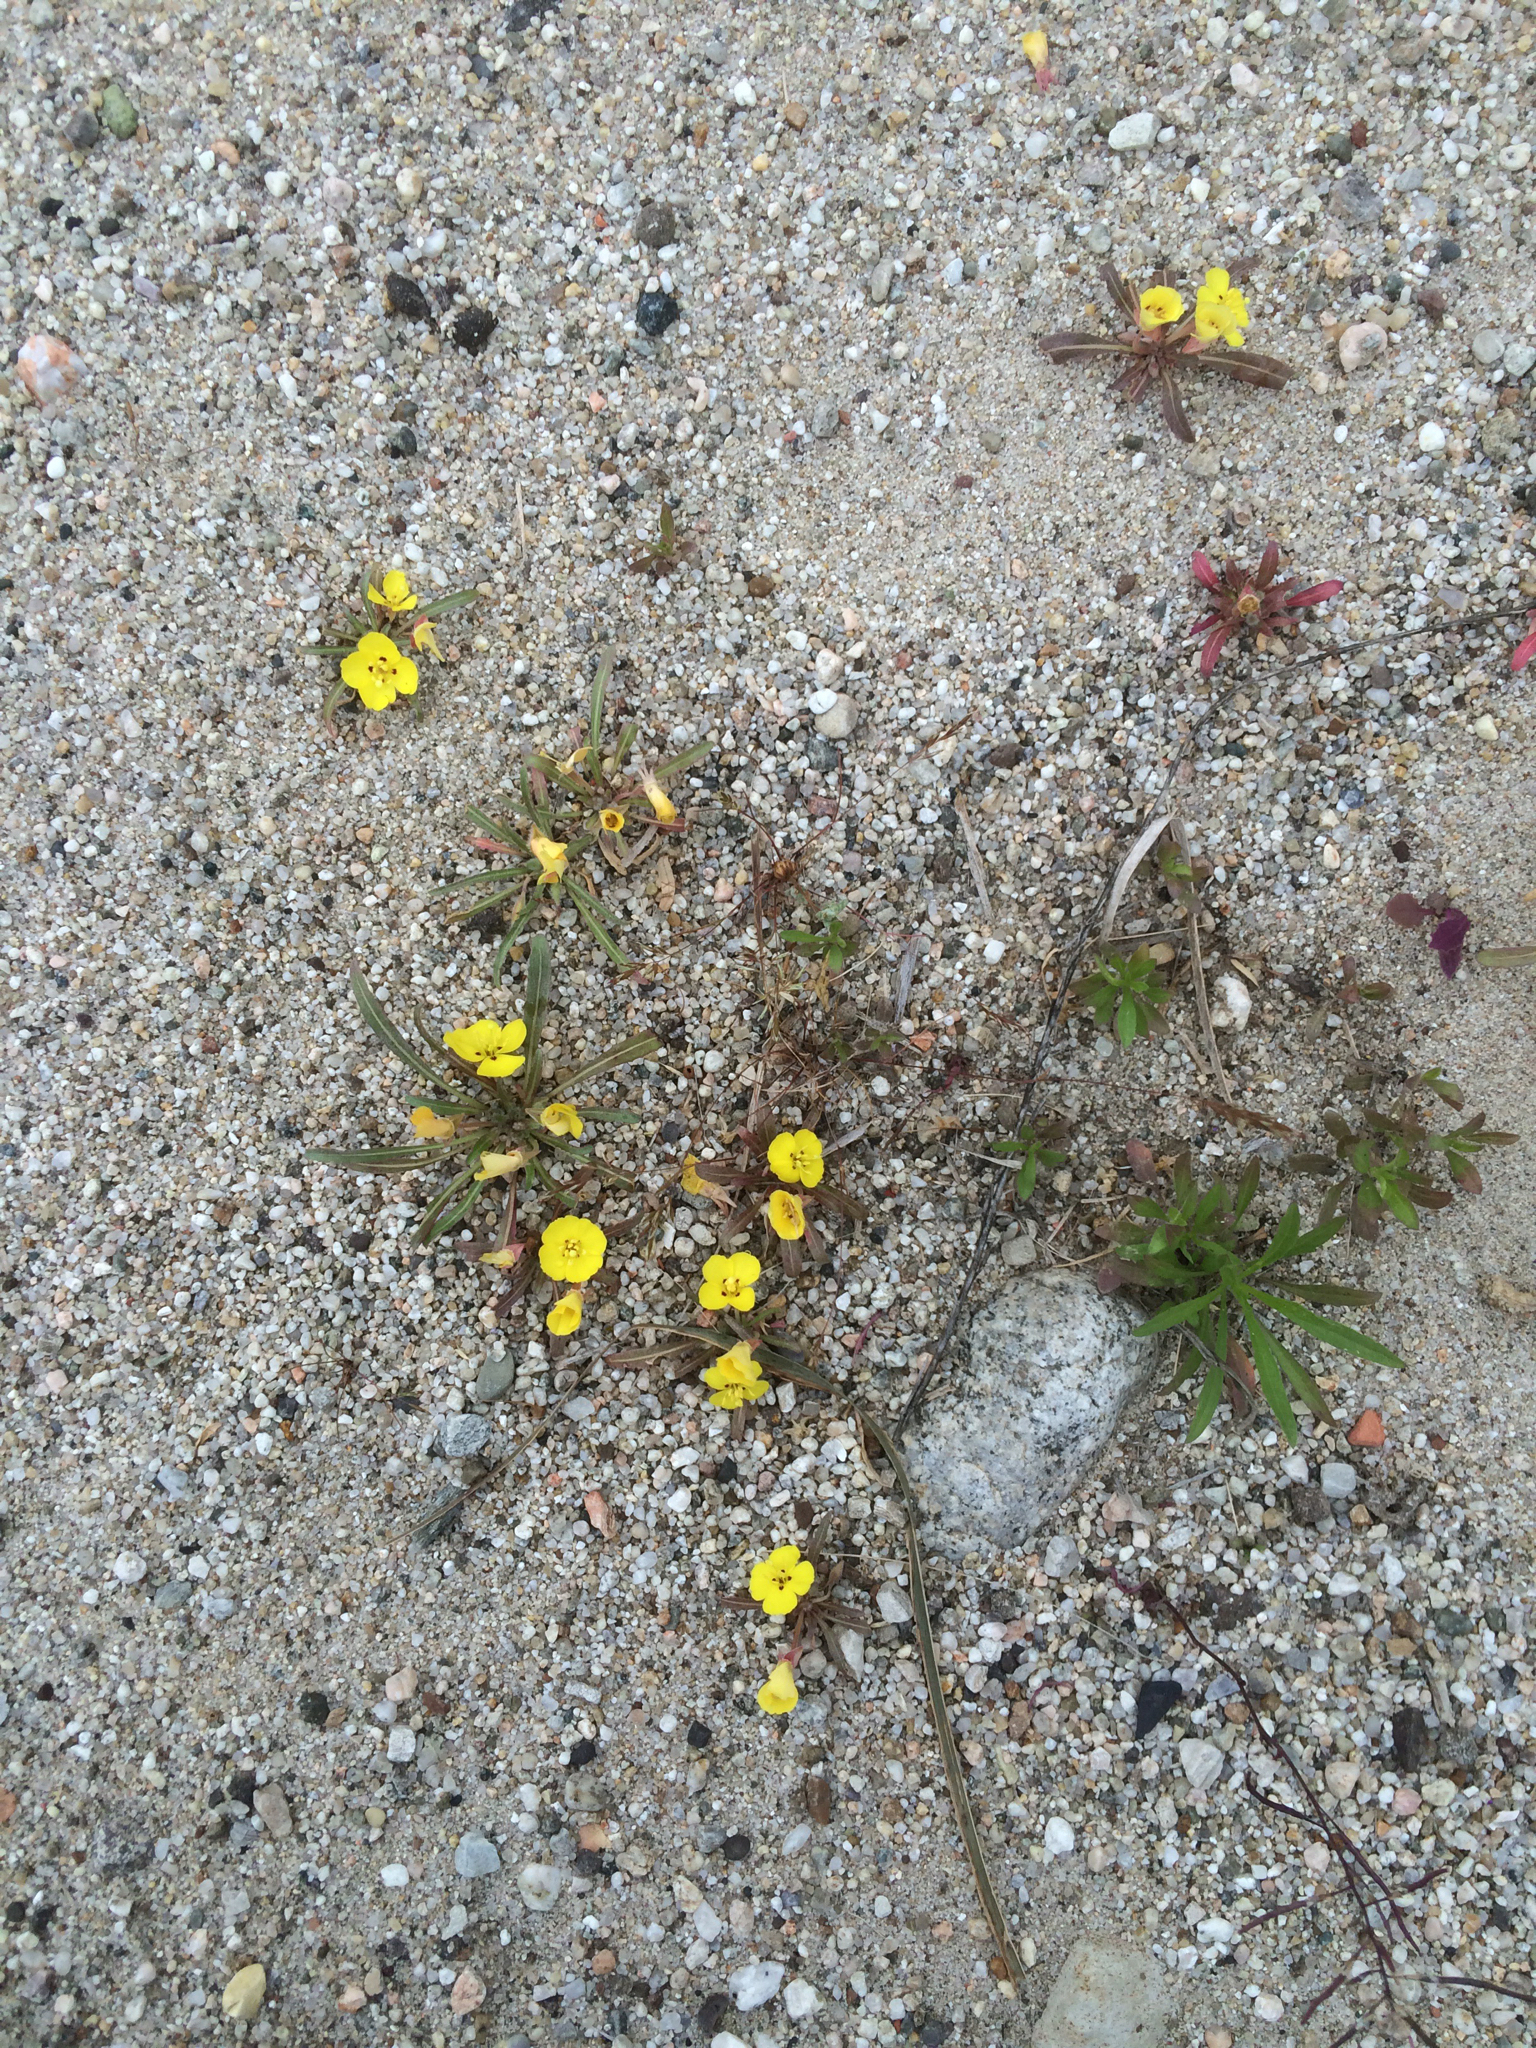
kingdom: Plantae
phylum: Tracheophyta
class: Magnoliopsida
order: Myrtales
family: Onagraceae
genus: Camissoniopsis
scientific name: Camissoniopsis bistorta
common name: Southern suncup
